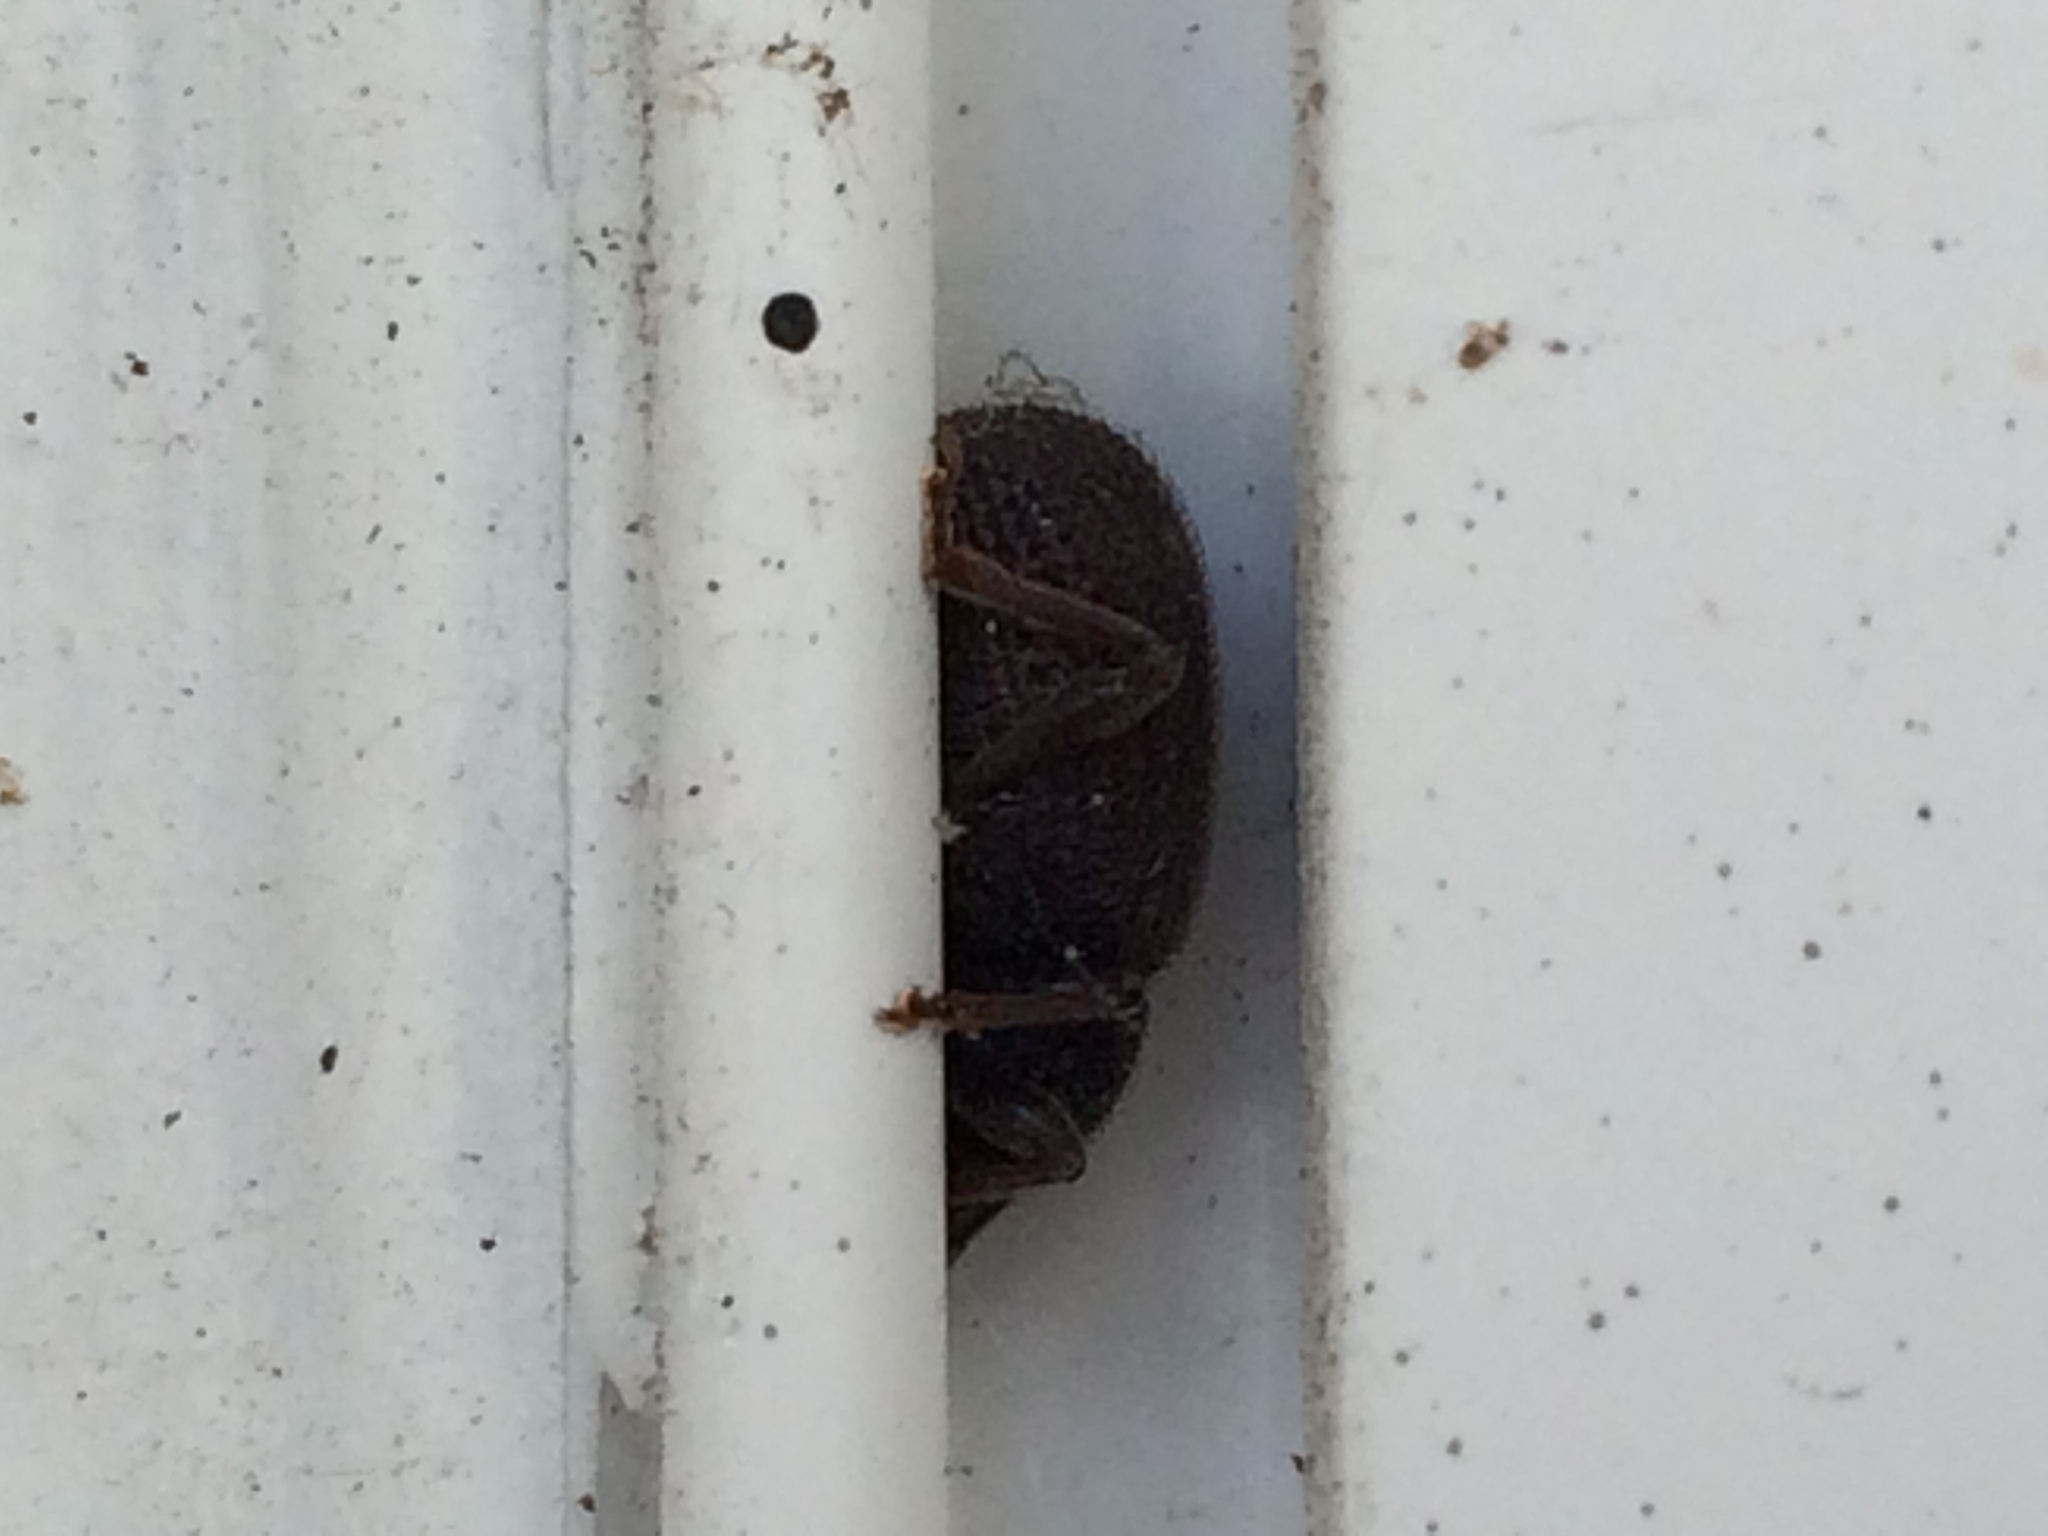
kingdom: Animalia
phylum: Arthropoda
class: Insecta
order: Coleoptera
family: Curculionidae
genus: Otiorhynchus
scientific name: Otiorhynchus rugosostriatus
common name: Weevil
